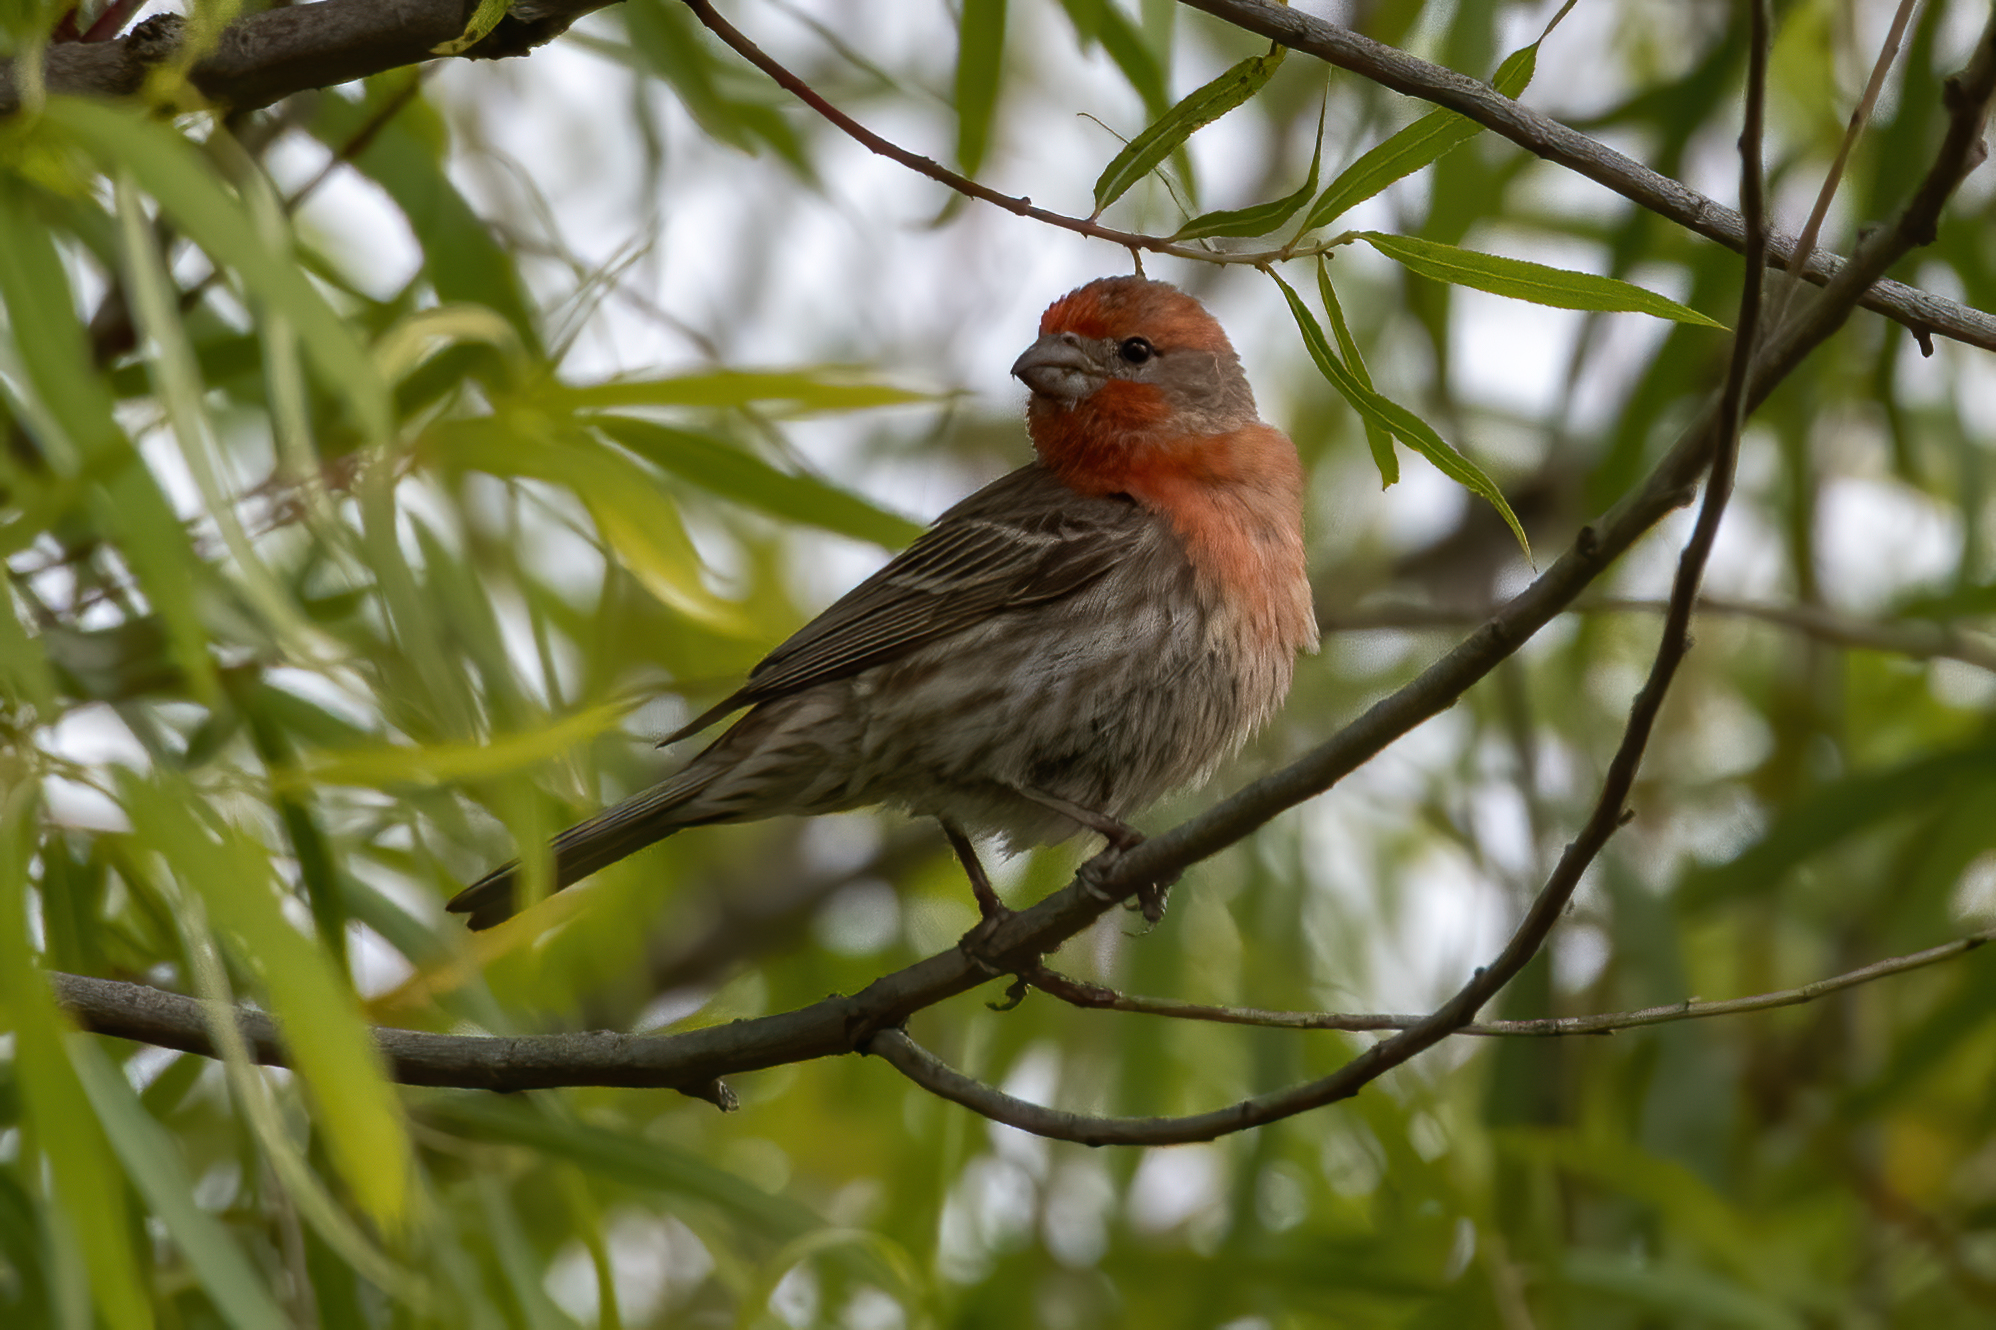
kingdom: Animalia
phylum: Chordata
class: Aves
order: Passeriformes
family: Fringillidae
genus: Haemorhous
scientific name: Haemorhous mexicanus
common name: House finch
